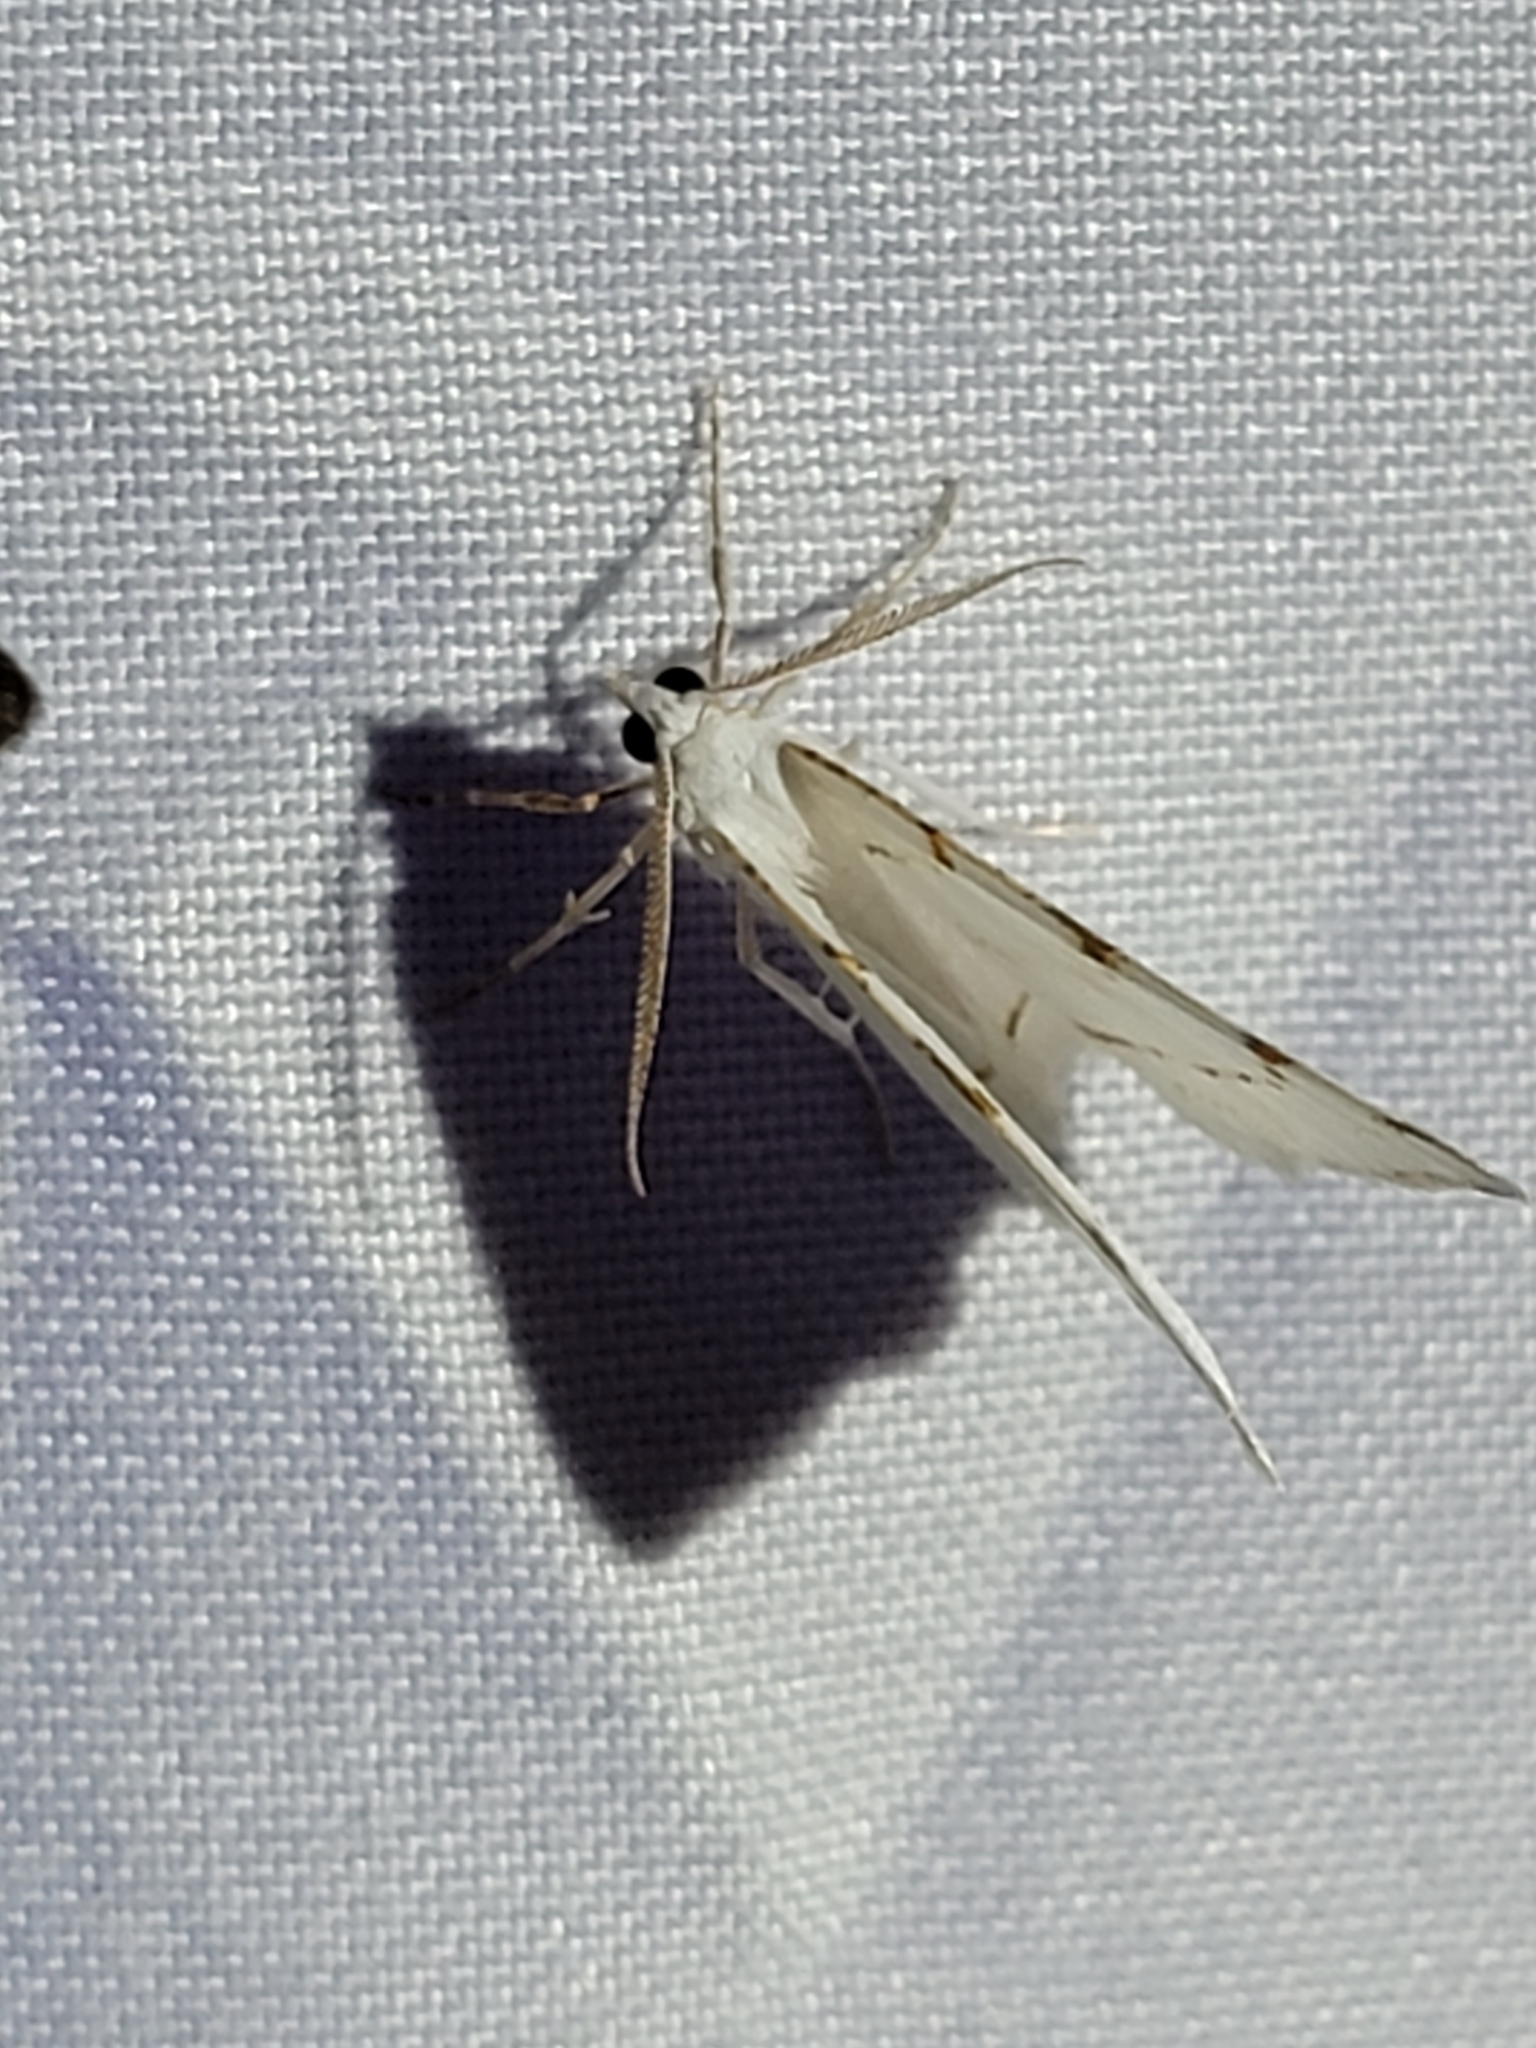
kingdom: Animalia
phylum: Arthropoda
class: Insecta
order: Lepidoptera
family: Geometridae
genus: Macaria
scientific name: Macaria pustularia
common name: Lesser maple spanworm moth
